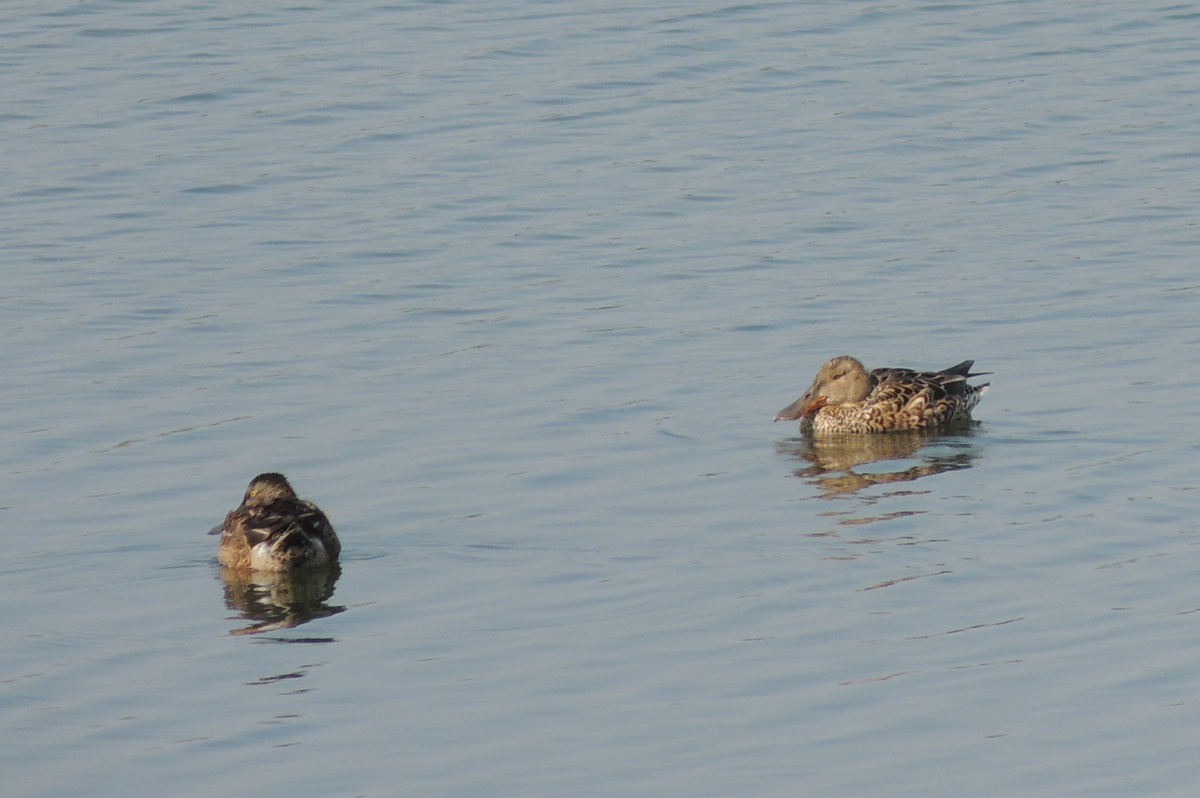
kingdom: Animalia
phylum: Chordata
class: Aves
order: Anseriformes
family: Anatidae
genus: Spatula
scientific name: Spatula clypeata
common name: Northern shoveler
